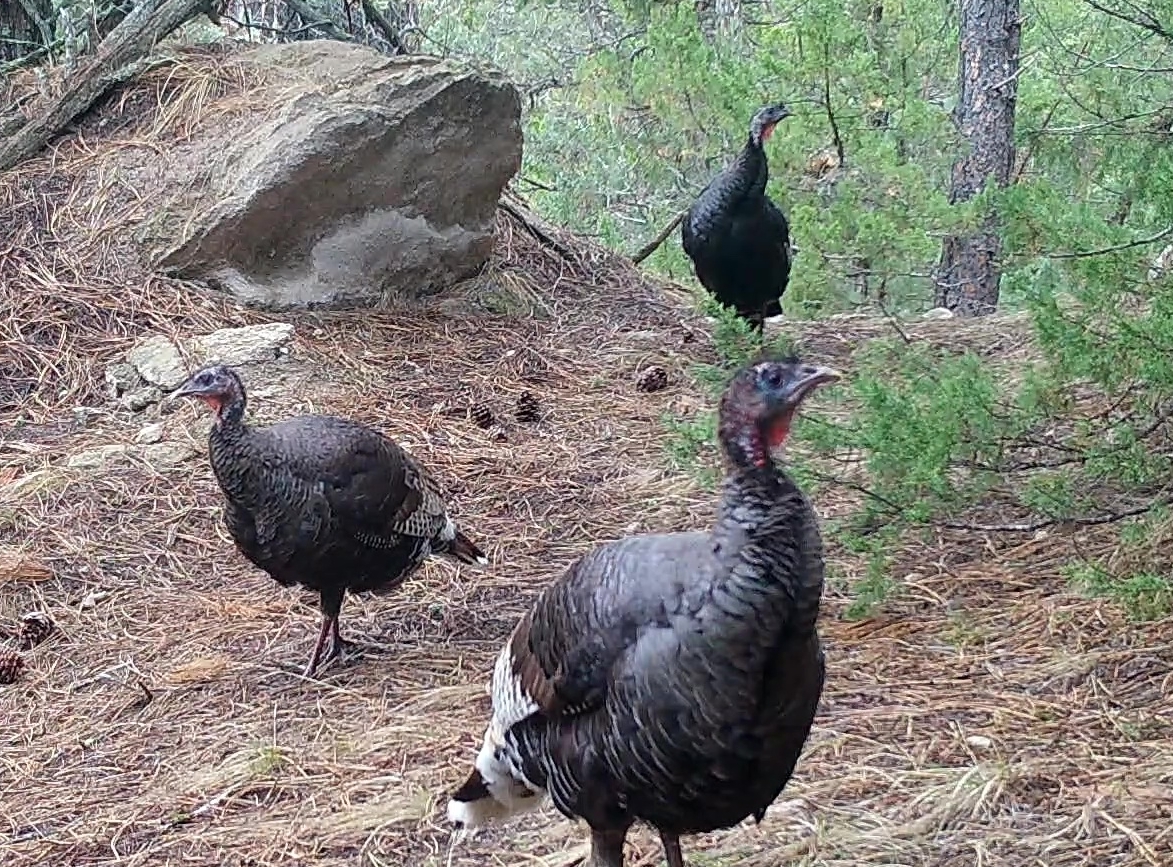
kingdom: Animalia
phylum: Chordata
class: Aves
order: Galliformes
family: Phasianidae
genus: Meleagris
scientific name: Meleagris gallopavo
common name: Wild turkey
